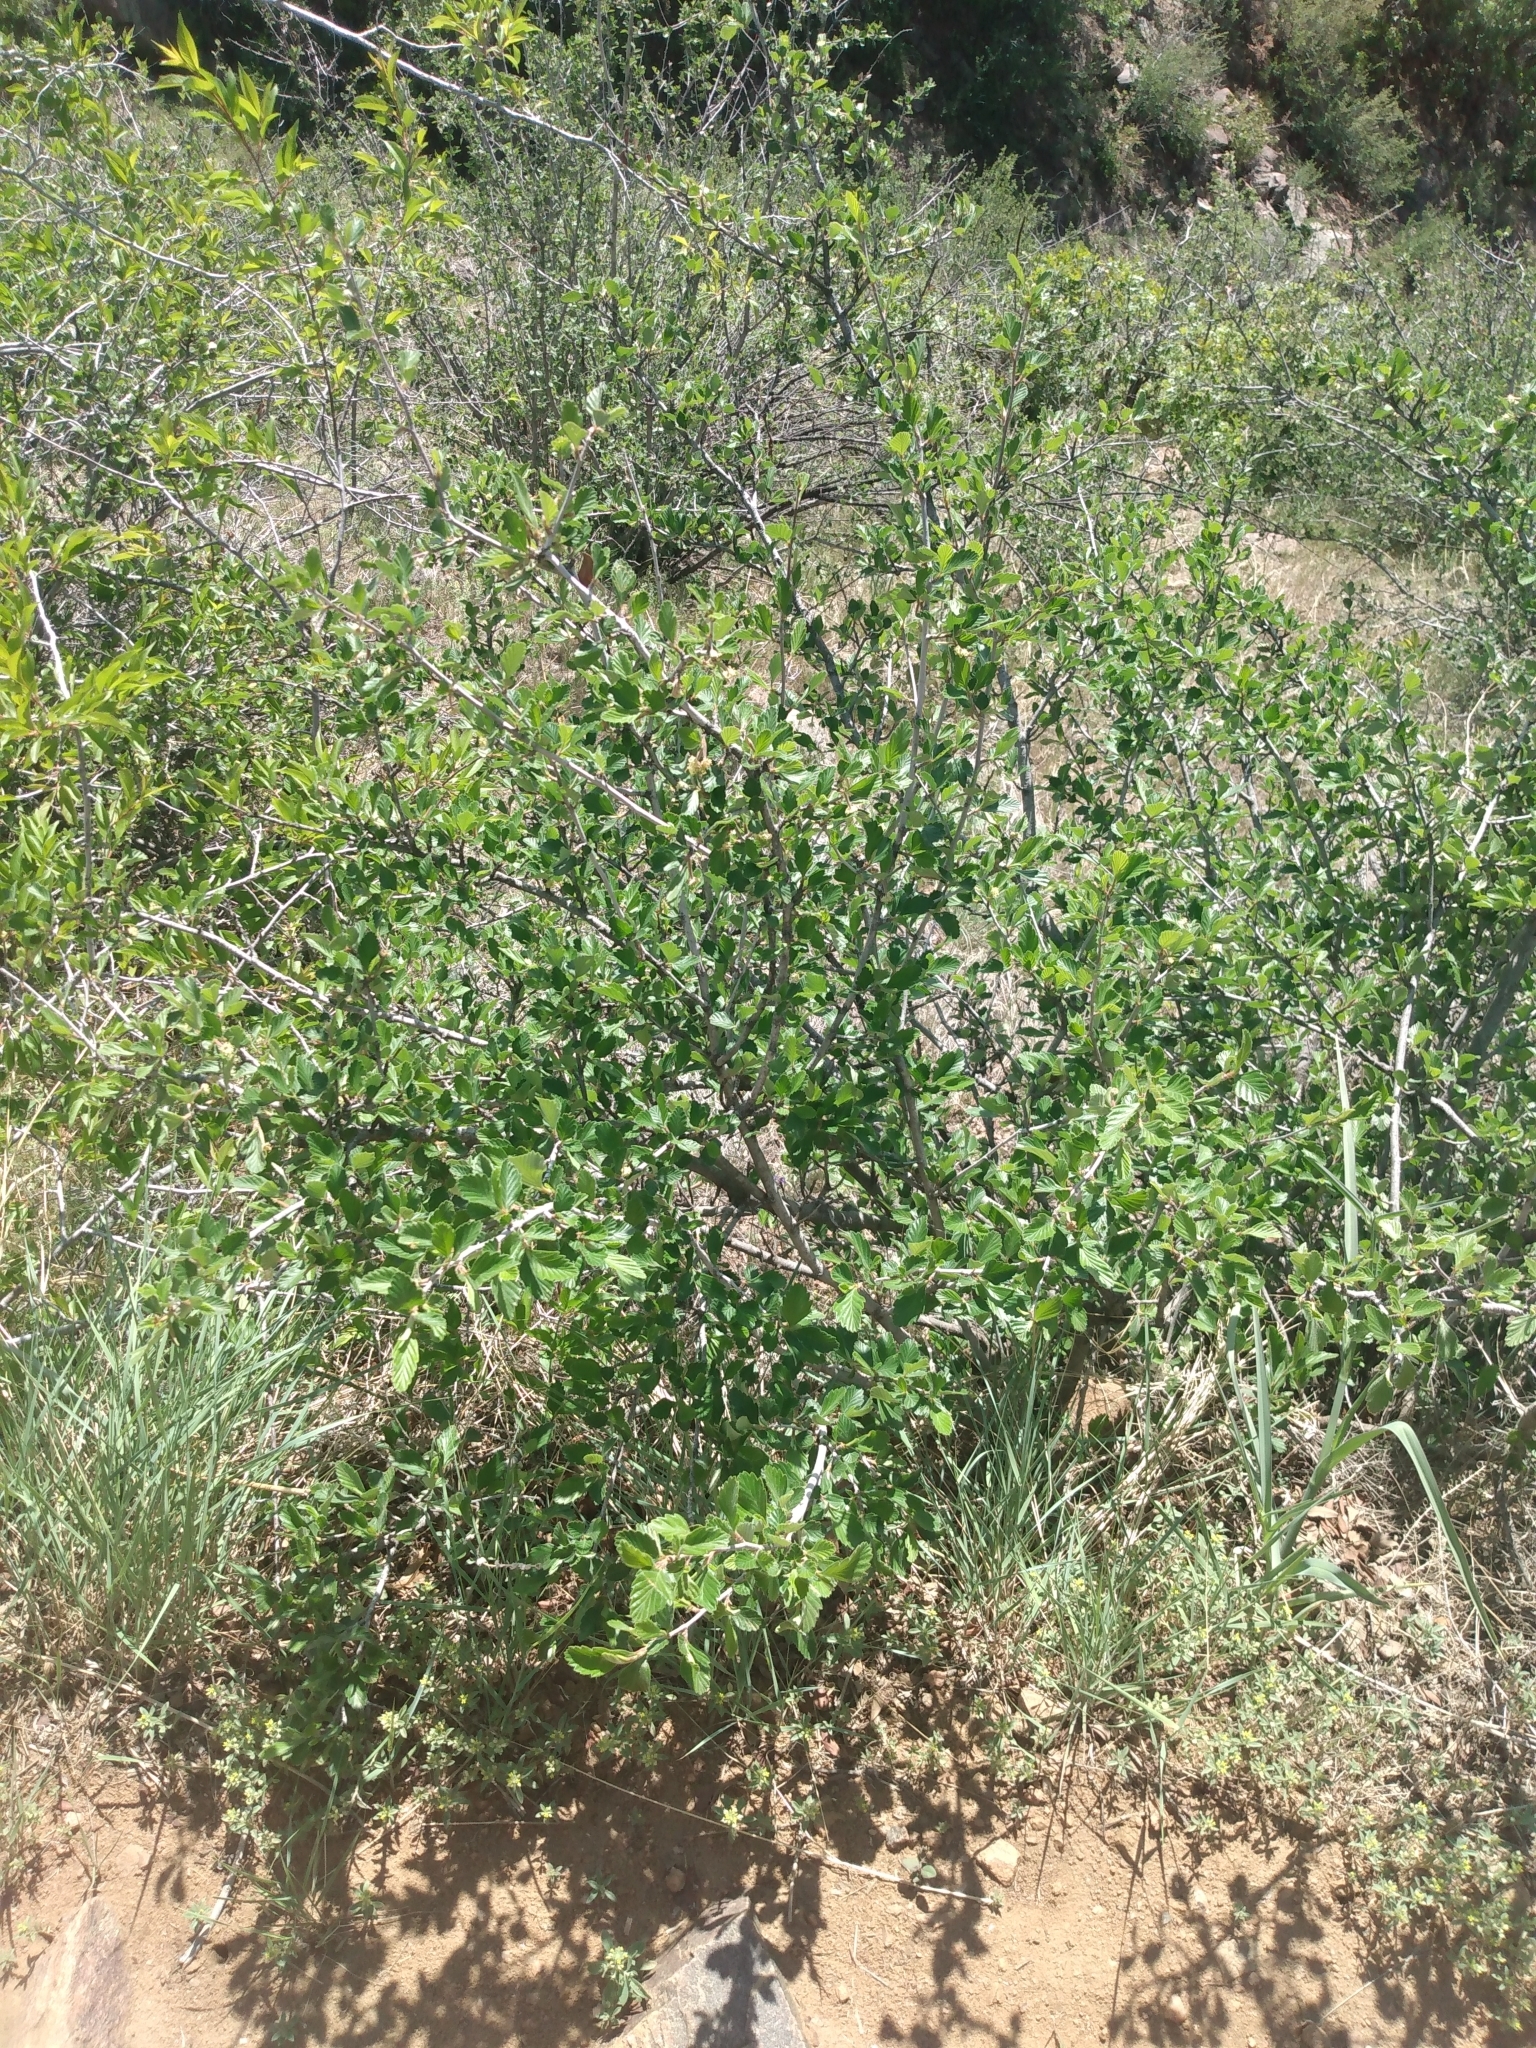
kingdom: Plantae
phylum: Tracheophyta
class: Magnoliopsida
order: Rosales
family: Rosaceae
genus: Cercocarpus
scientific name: Cercocarpus montanus
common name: Alder-leaf cercocarpus
